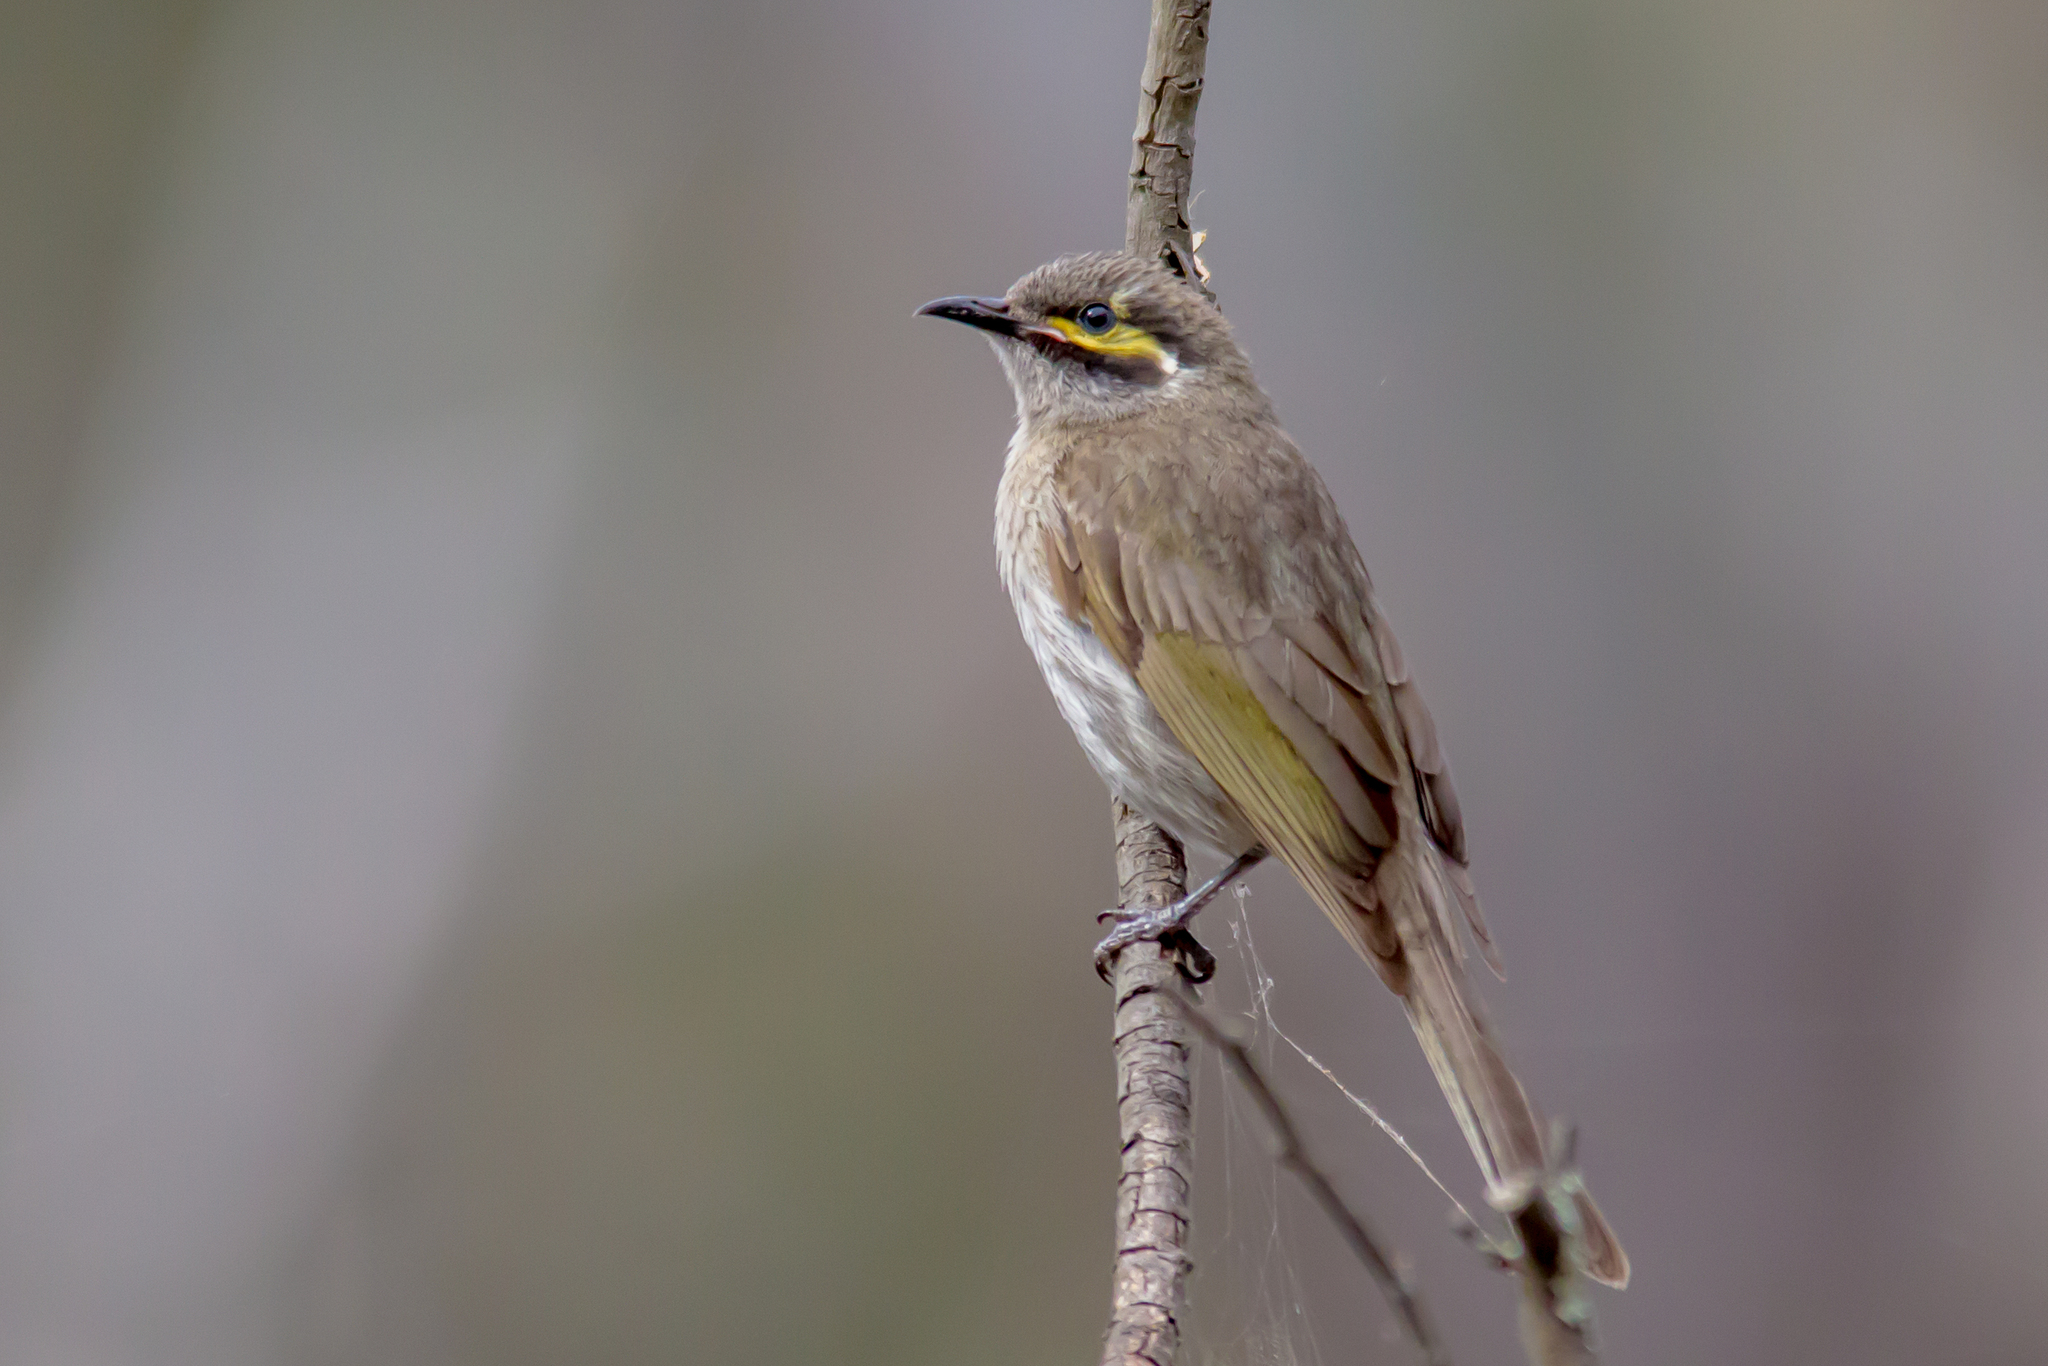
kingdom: Animalia
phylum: Chordata
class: Aves
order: Passeriformes
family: Meliphagidae
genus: Caligavis
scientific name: Caligavis chrysops
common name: Yellow-faced honeyeater
